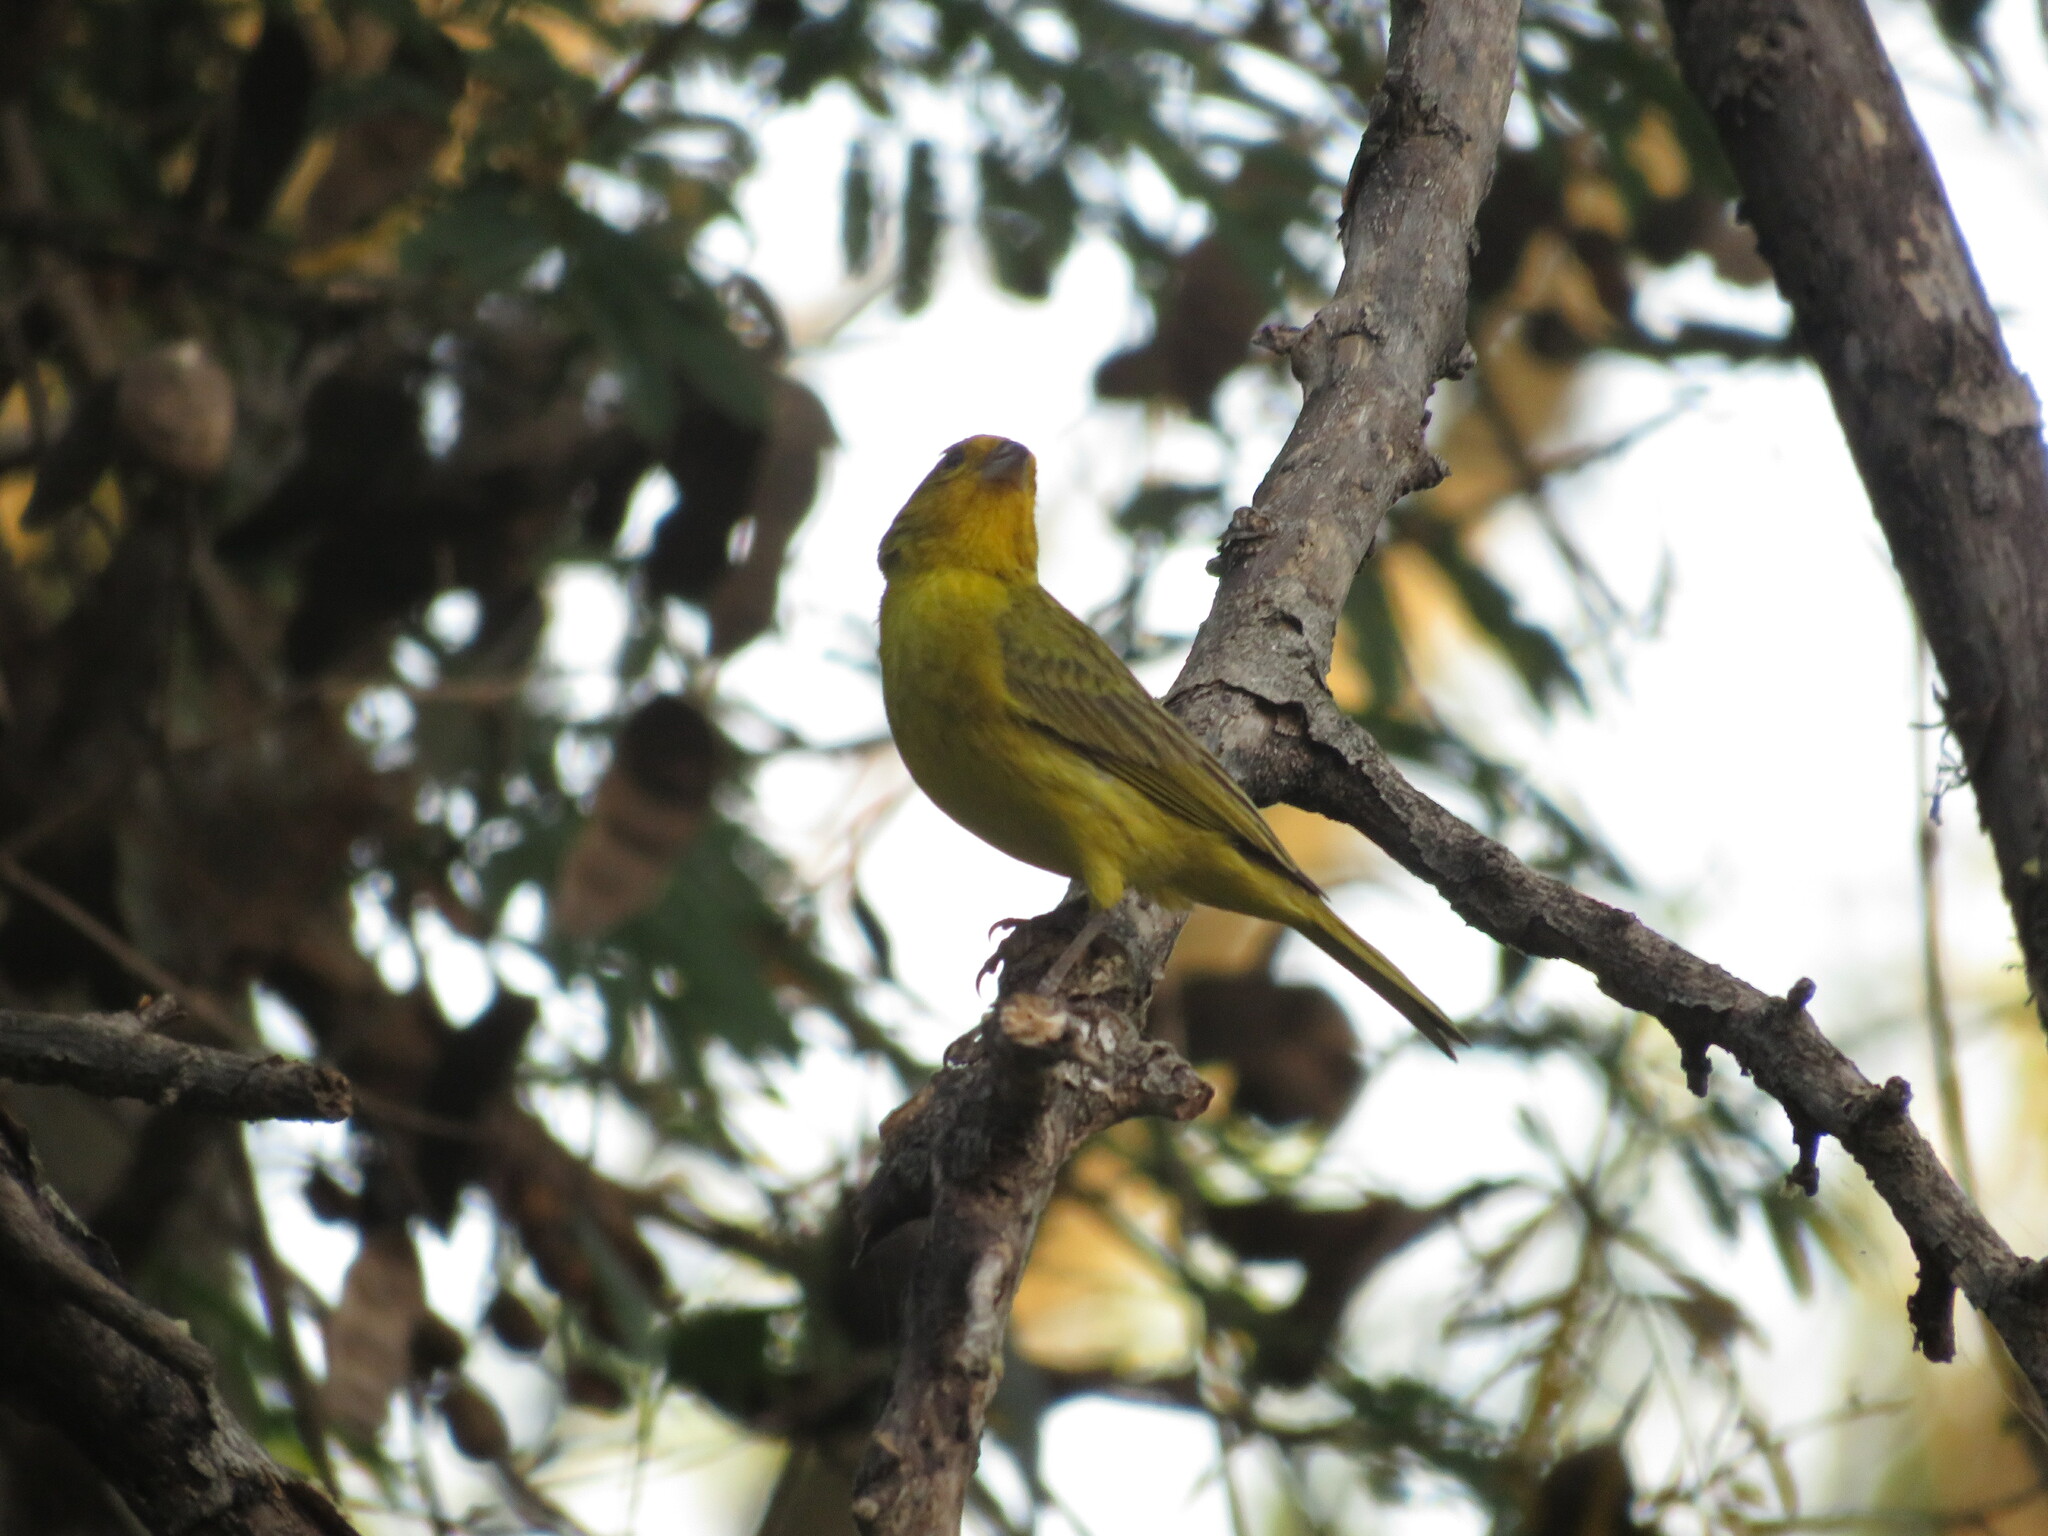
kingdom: Animalia
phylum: Chordata
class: Aves
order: Passeriformes
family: Thraupidae
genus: Sicalis
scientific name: Sicalis flaveola
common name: Saffron finch
